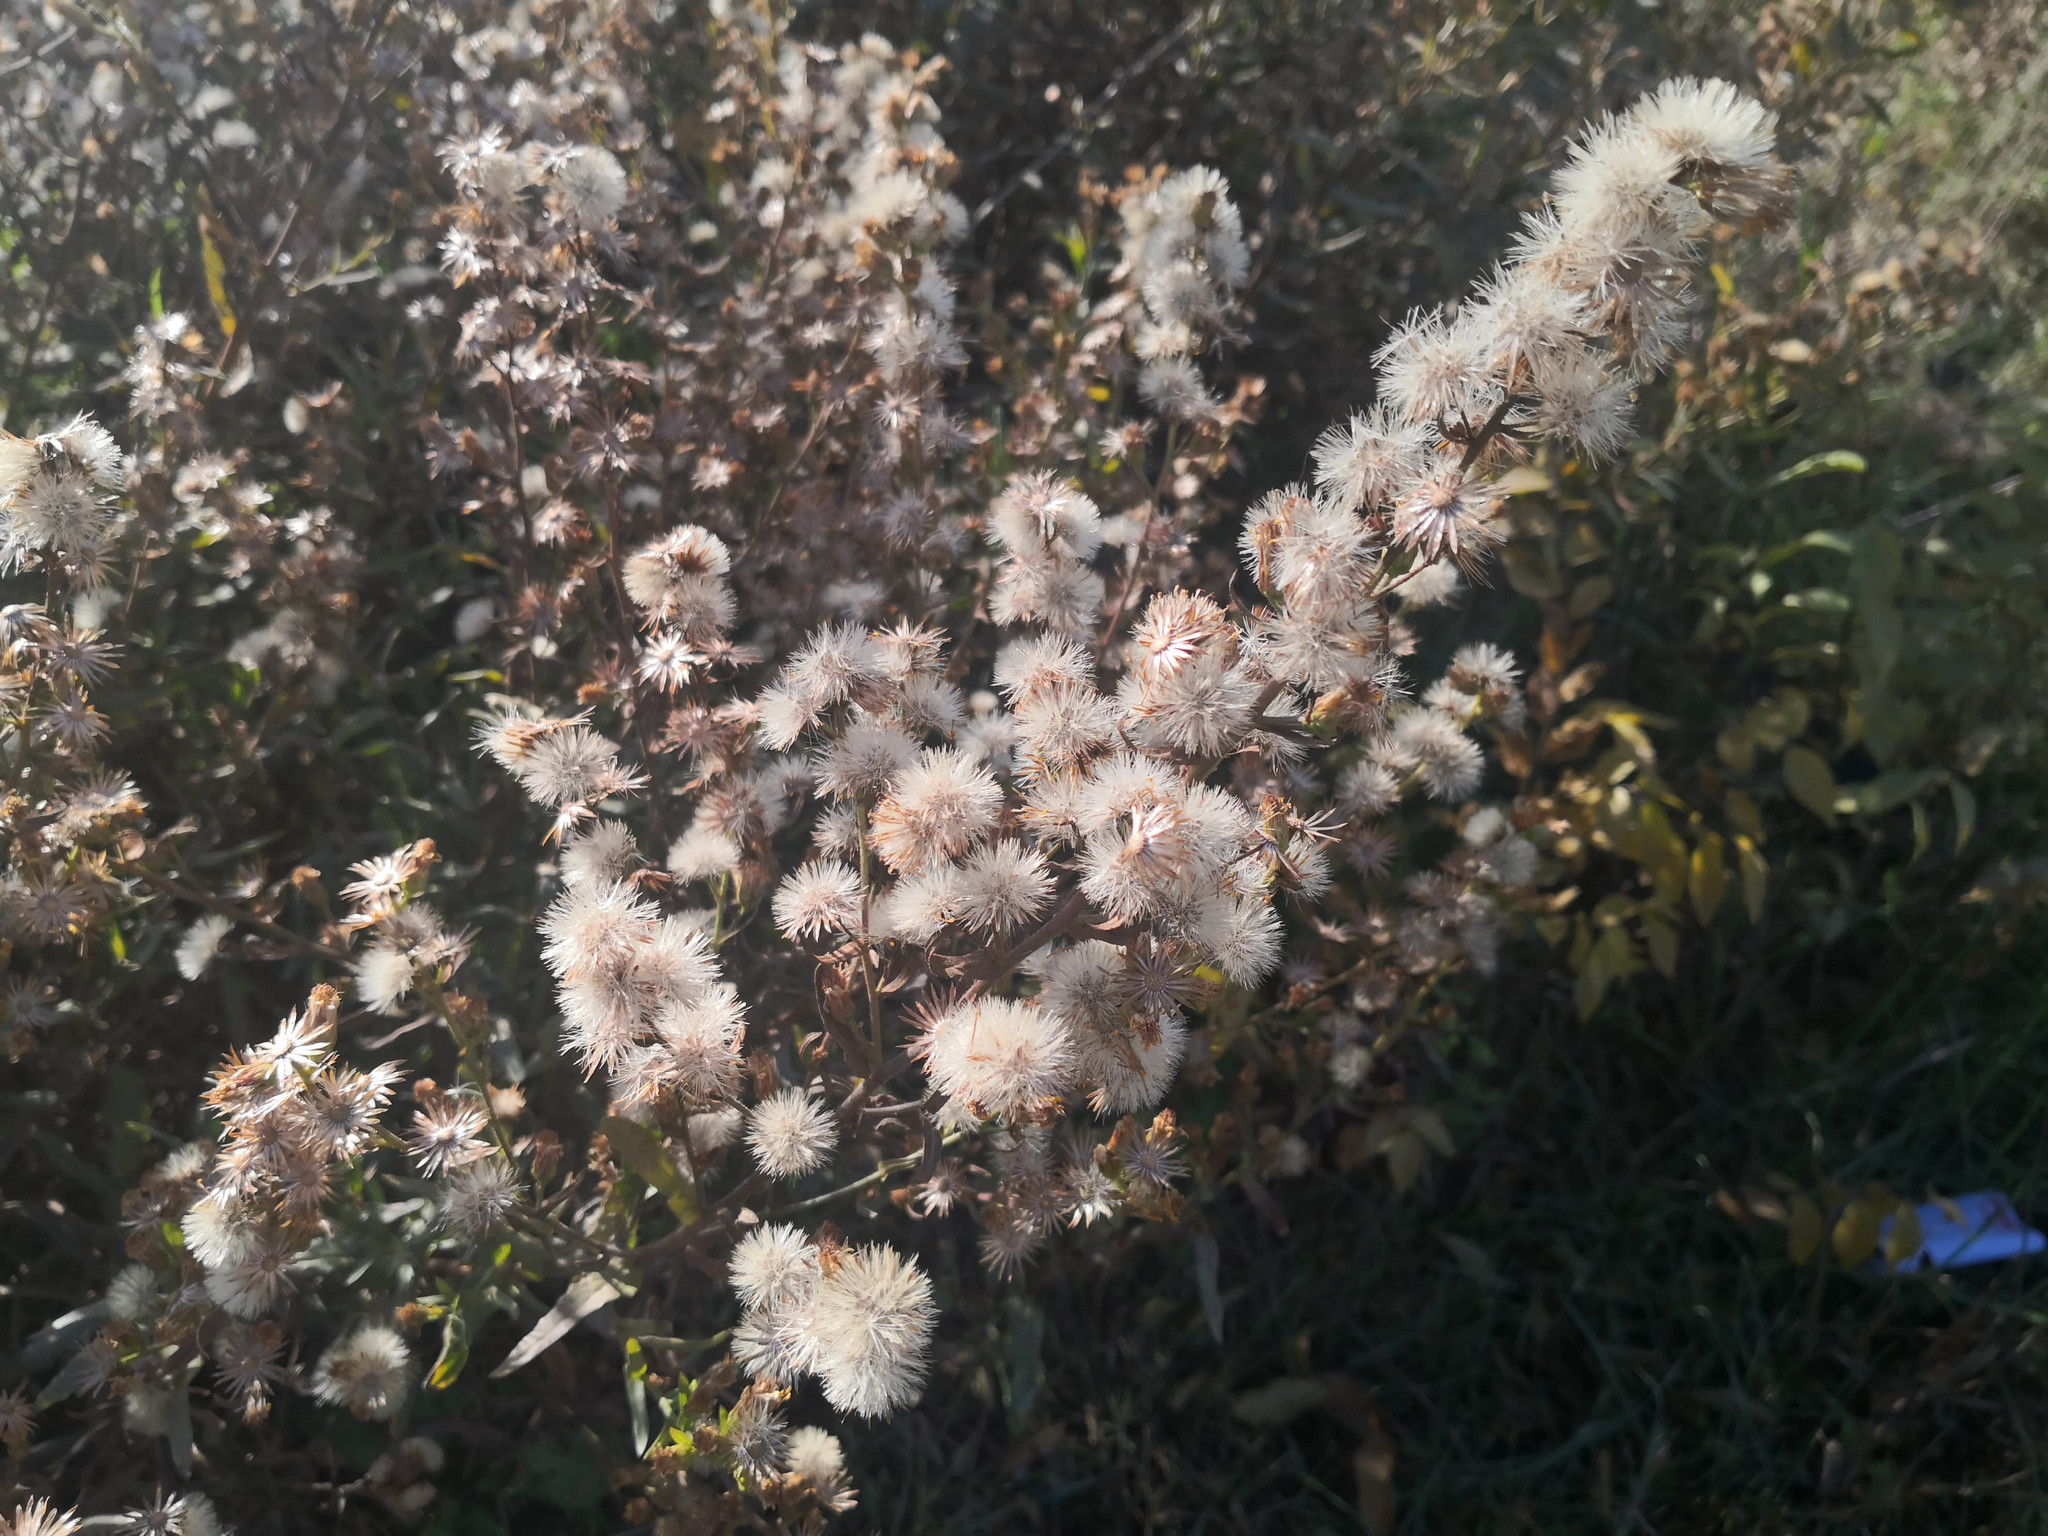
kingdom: Plantae
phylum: Tracheophyta
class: Magnoliopsida
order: Asterales
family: Asteraceae
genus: Dittrichia
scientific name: Dittrichia viscosa
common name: Woody fleabane
